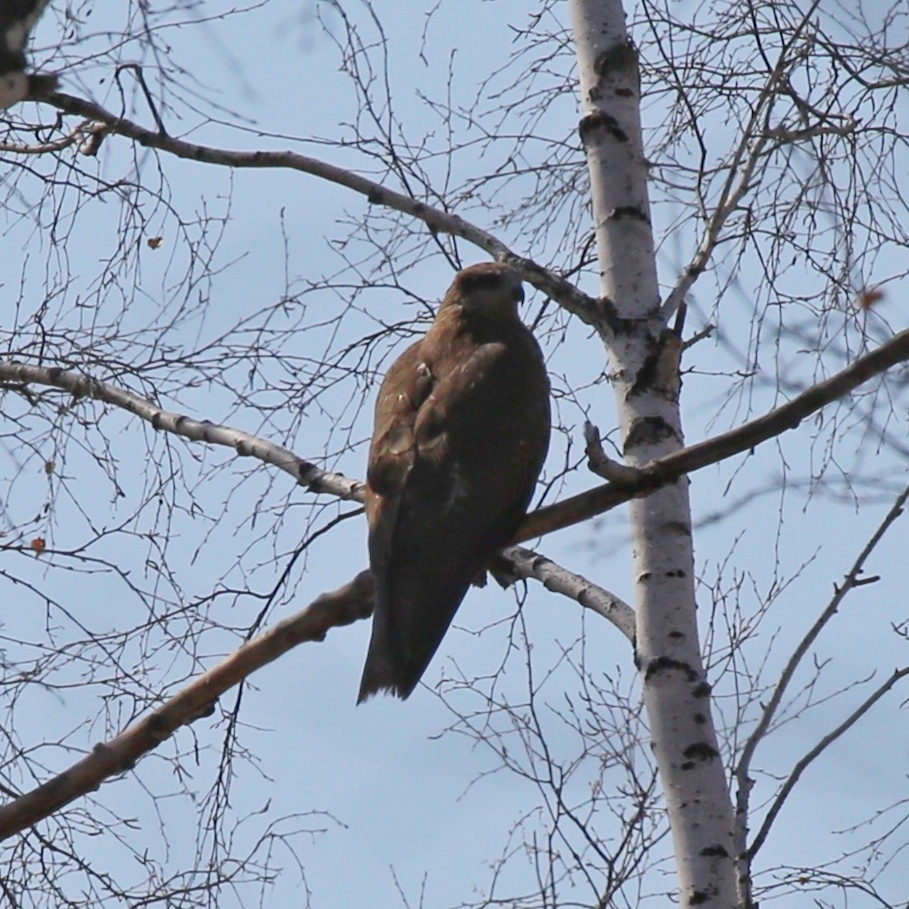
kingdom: Animalia
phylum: Chordata
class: Aves
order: Accipitriformes
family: Accipitridae
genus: Milvus
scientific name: Milvus migrans
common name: Black kite
